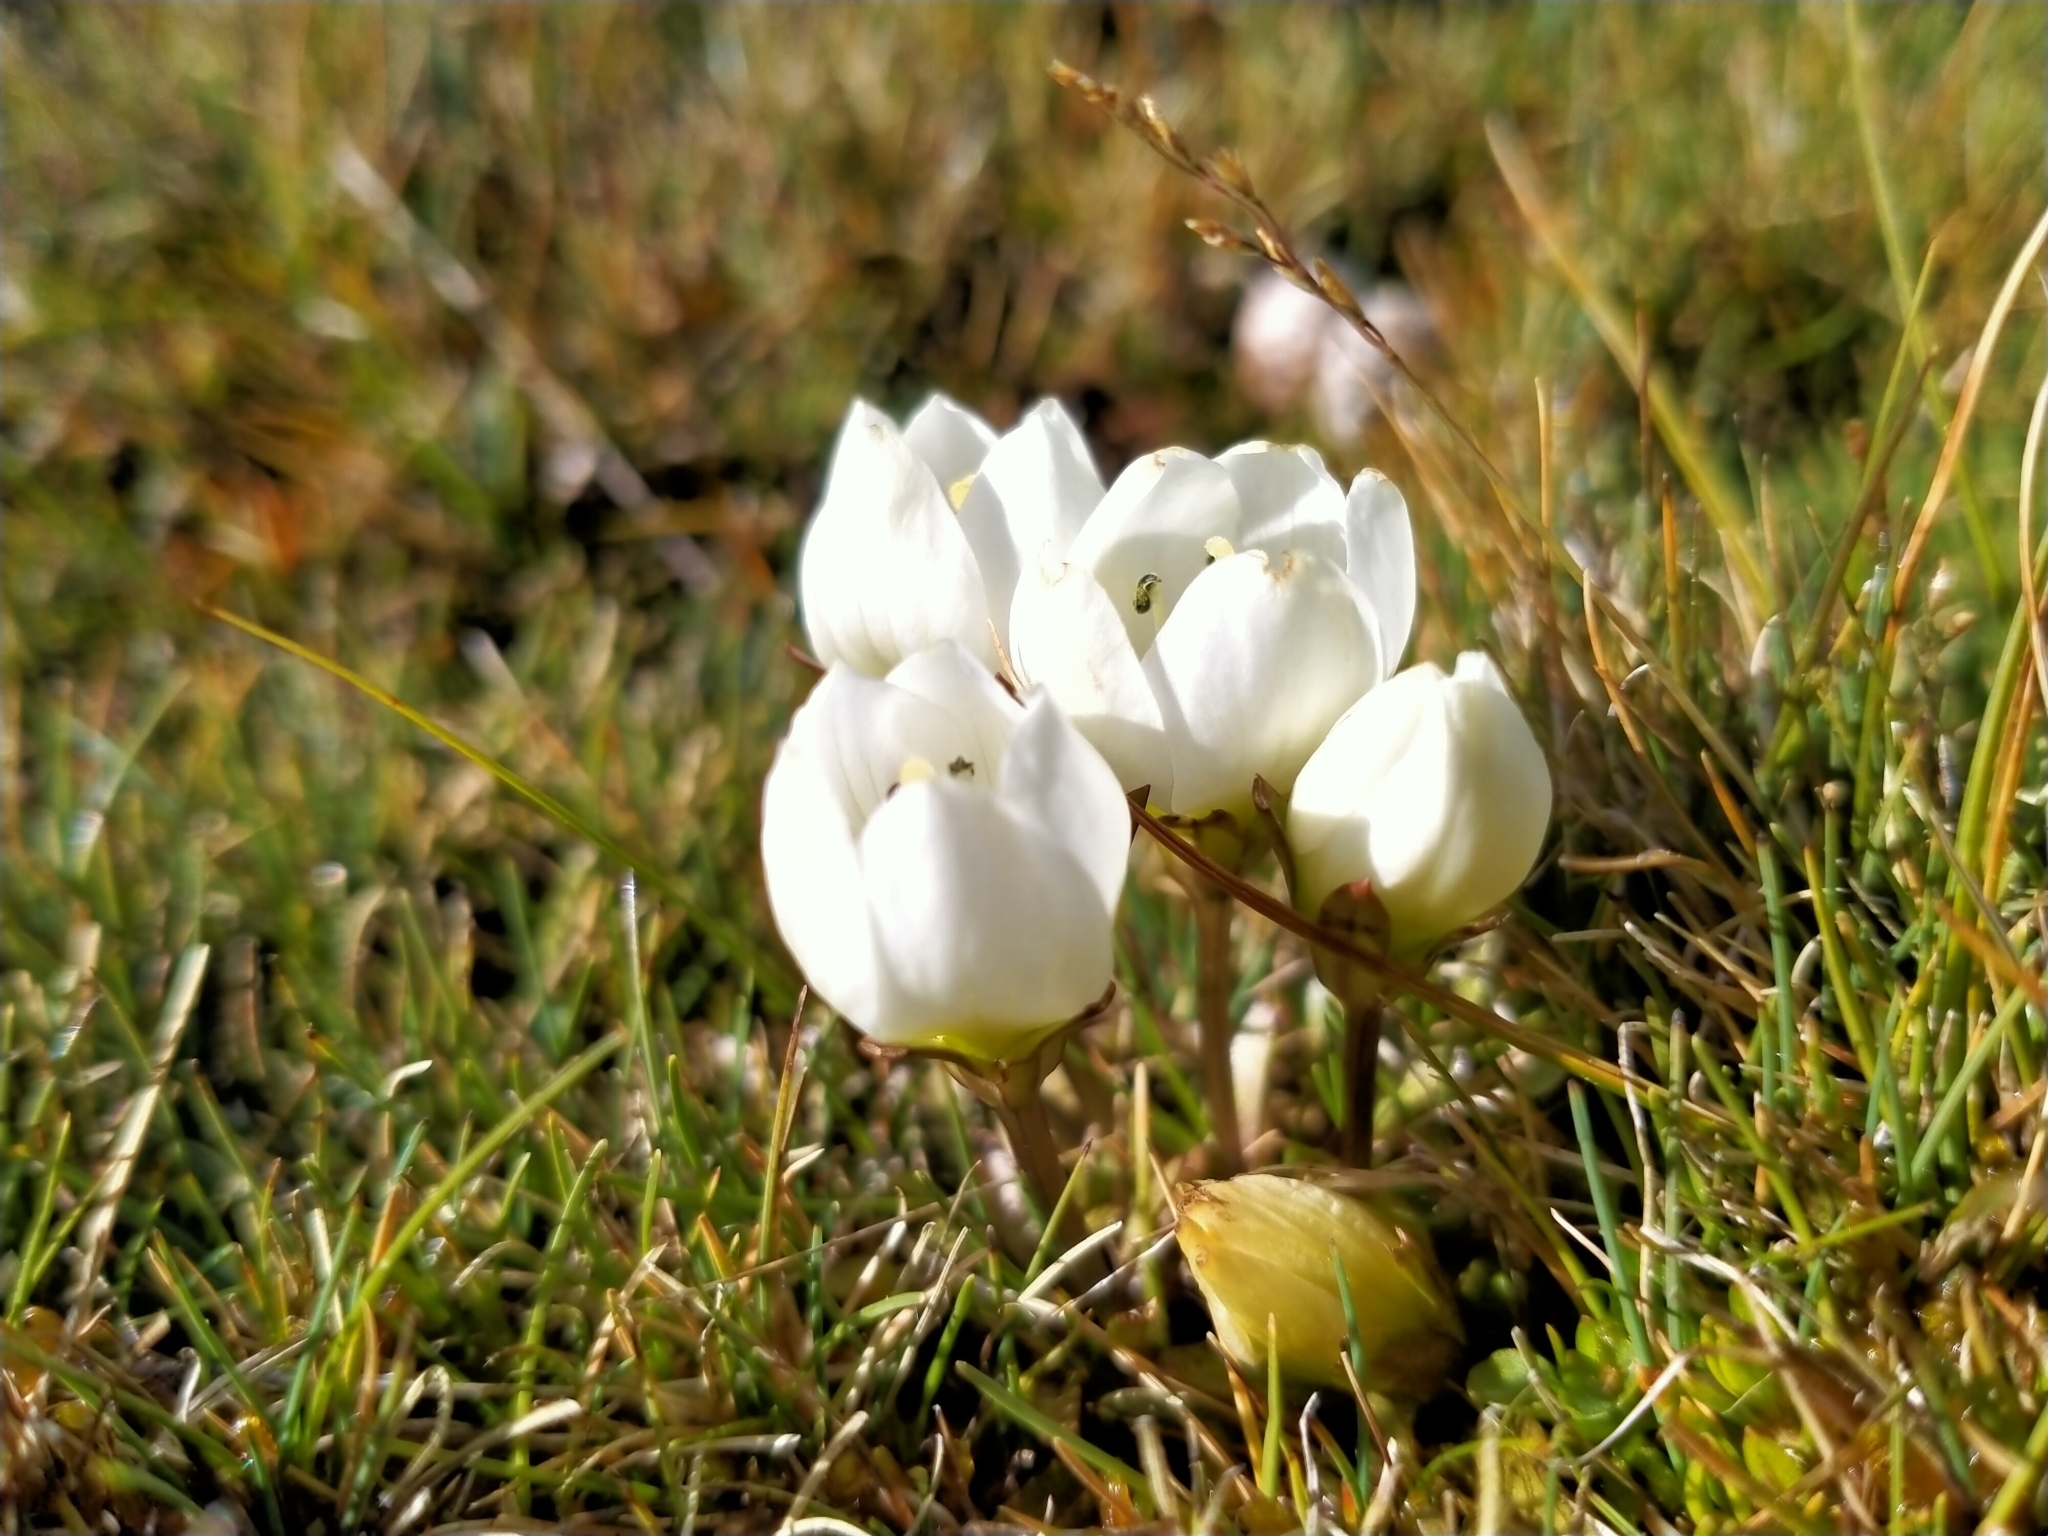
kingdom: Plantae
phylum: Tracheophyta
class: Magnoliopsida
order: Gentianales
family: Gentianaceae
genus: Gentianella
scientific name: Gentianella amabilis
